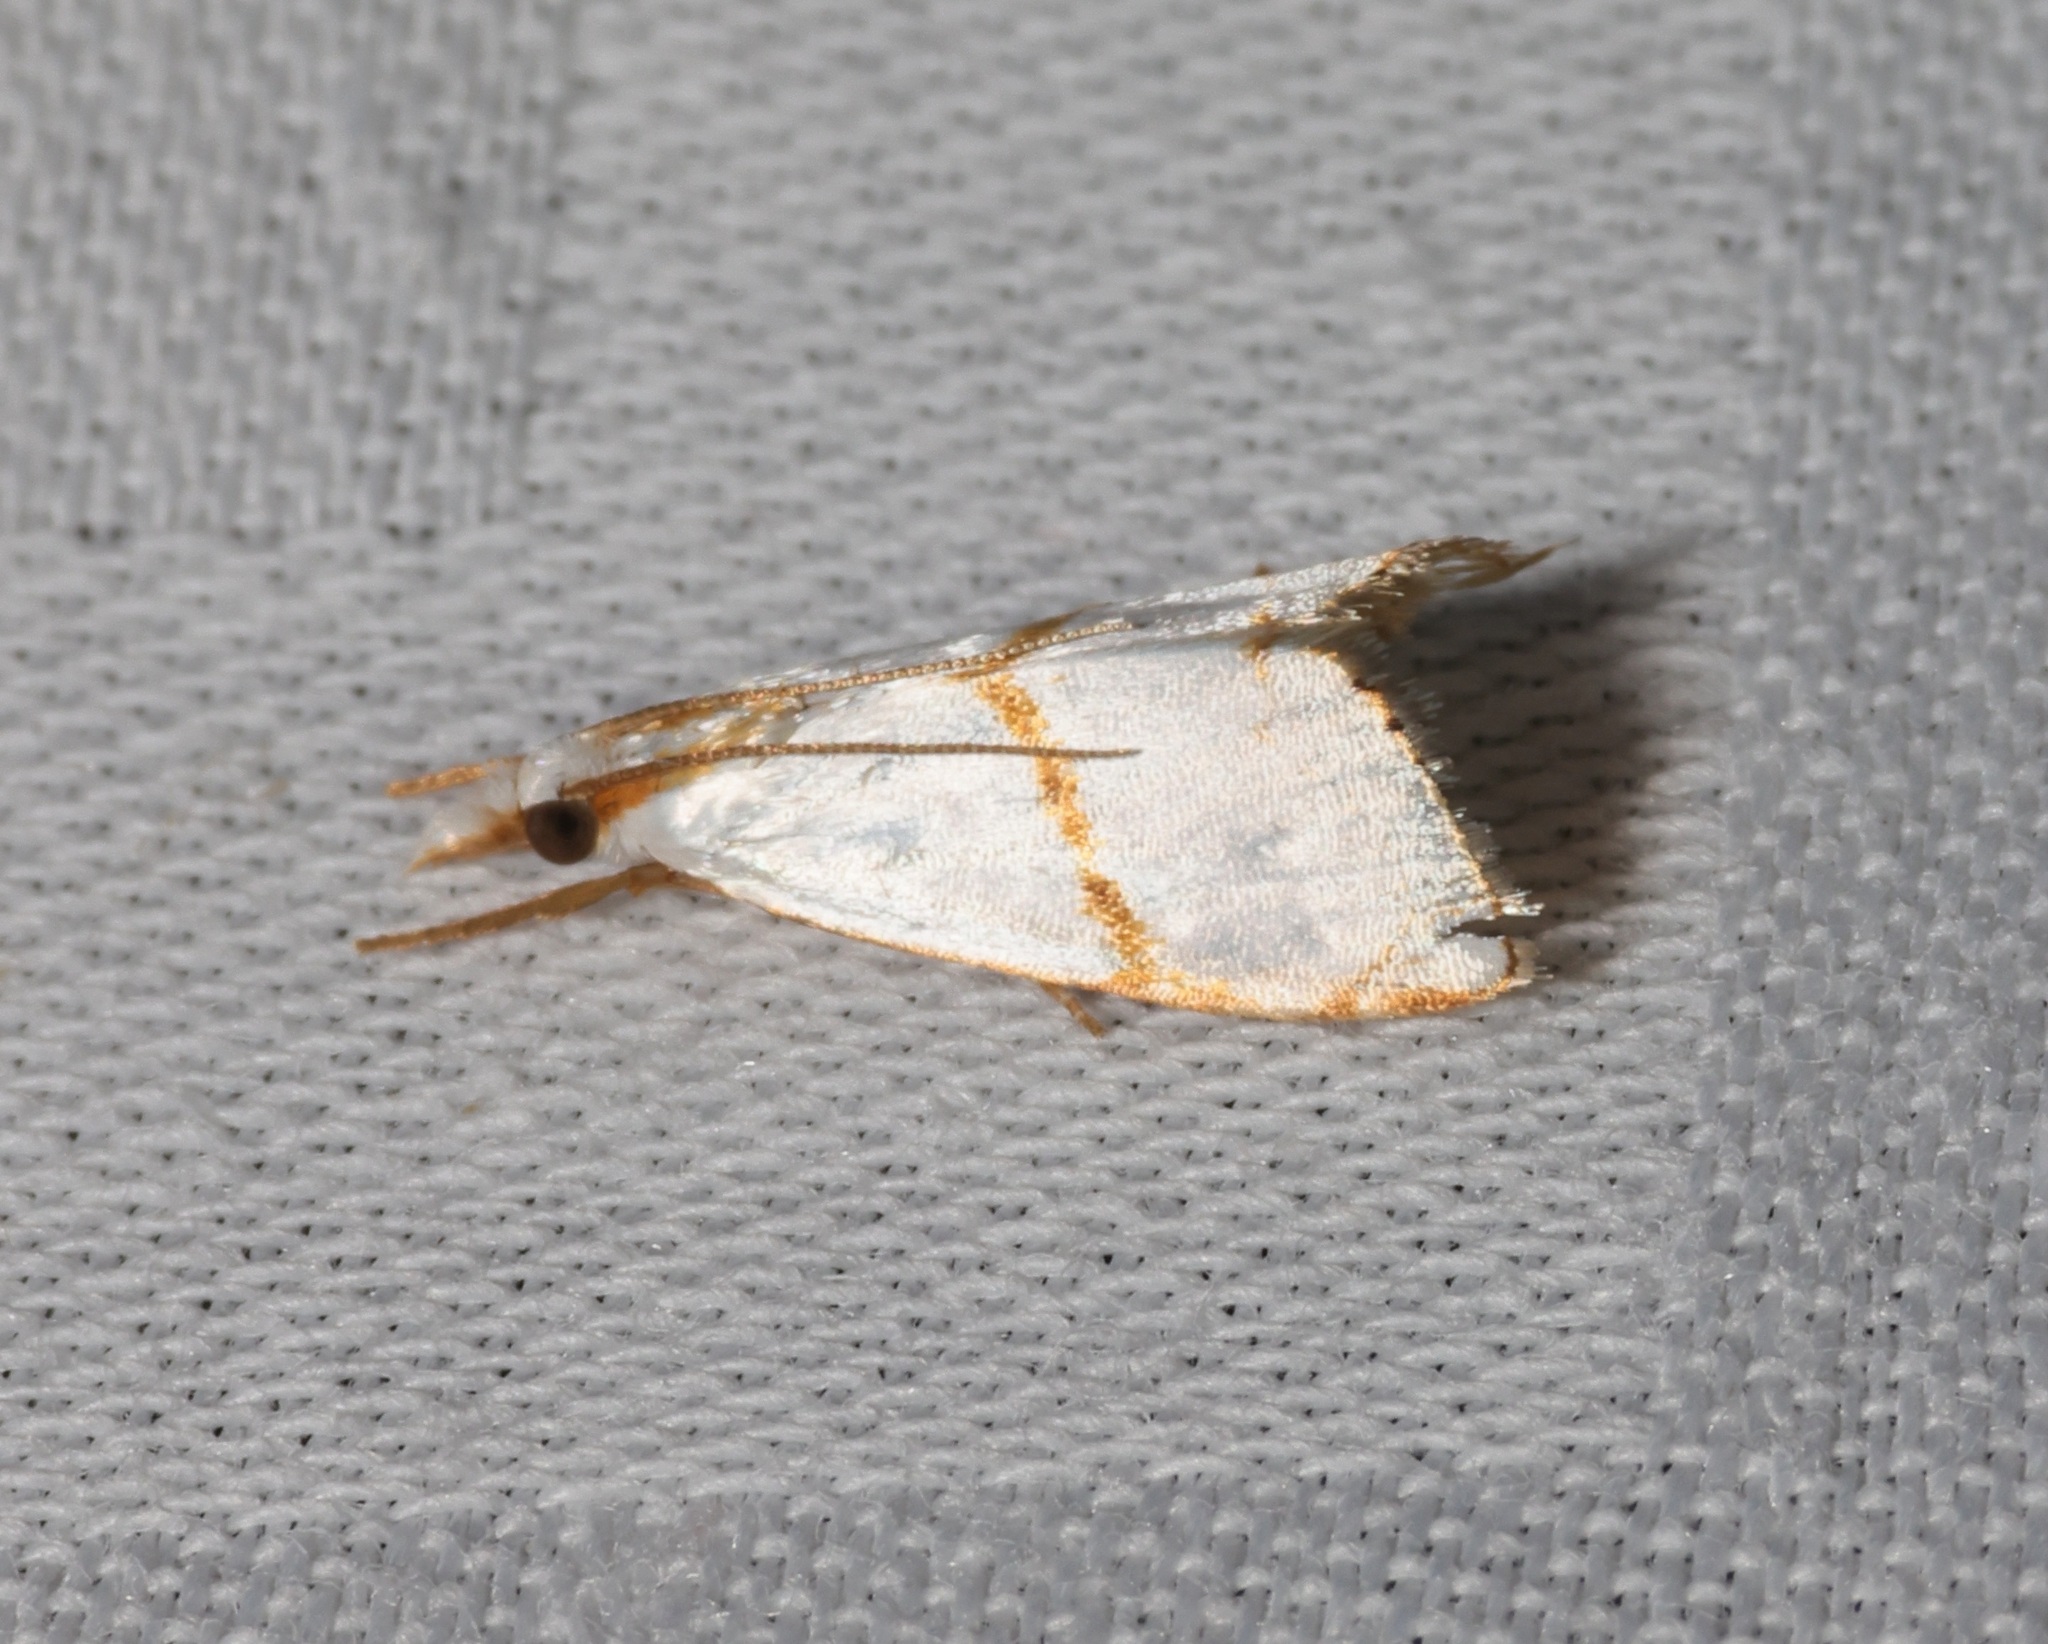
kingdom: Animalia
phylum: Arthropoda
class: Insecta
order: Lepidoptera
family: Crambidae
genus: Pseudargyria
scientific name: Pseudargyria interruptella
